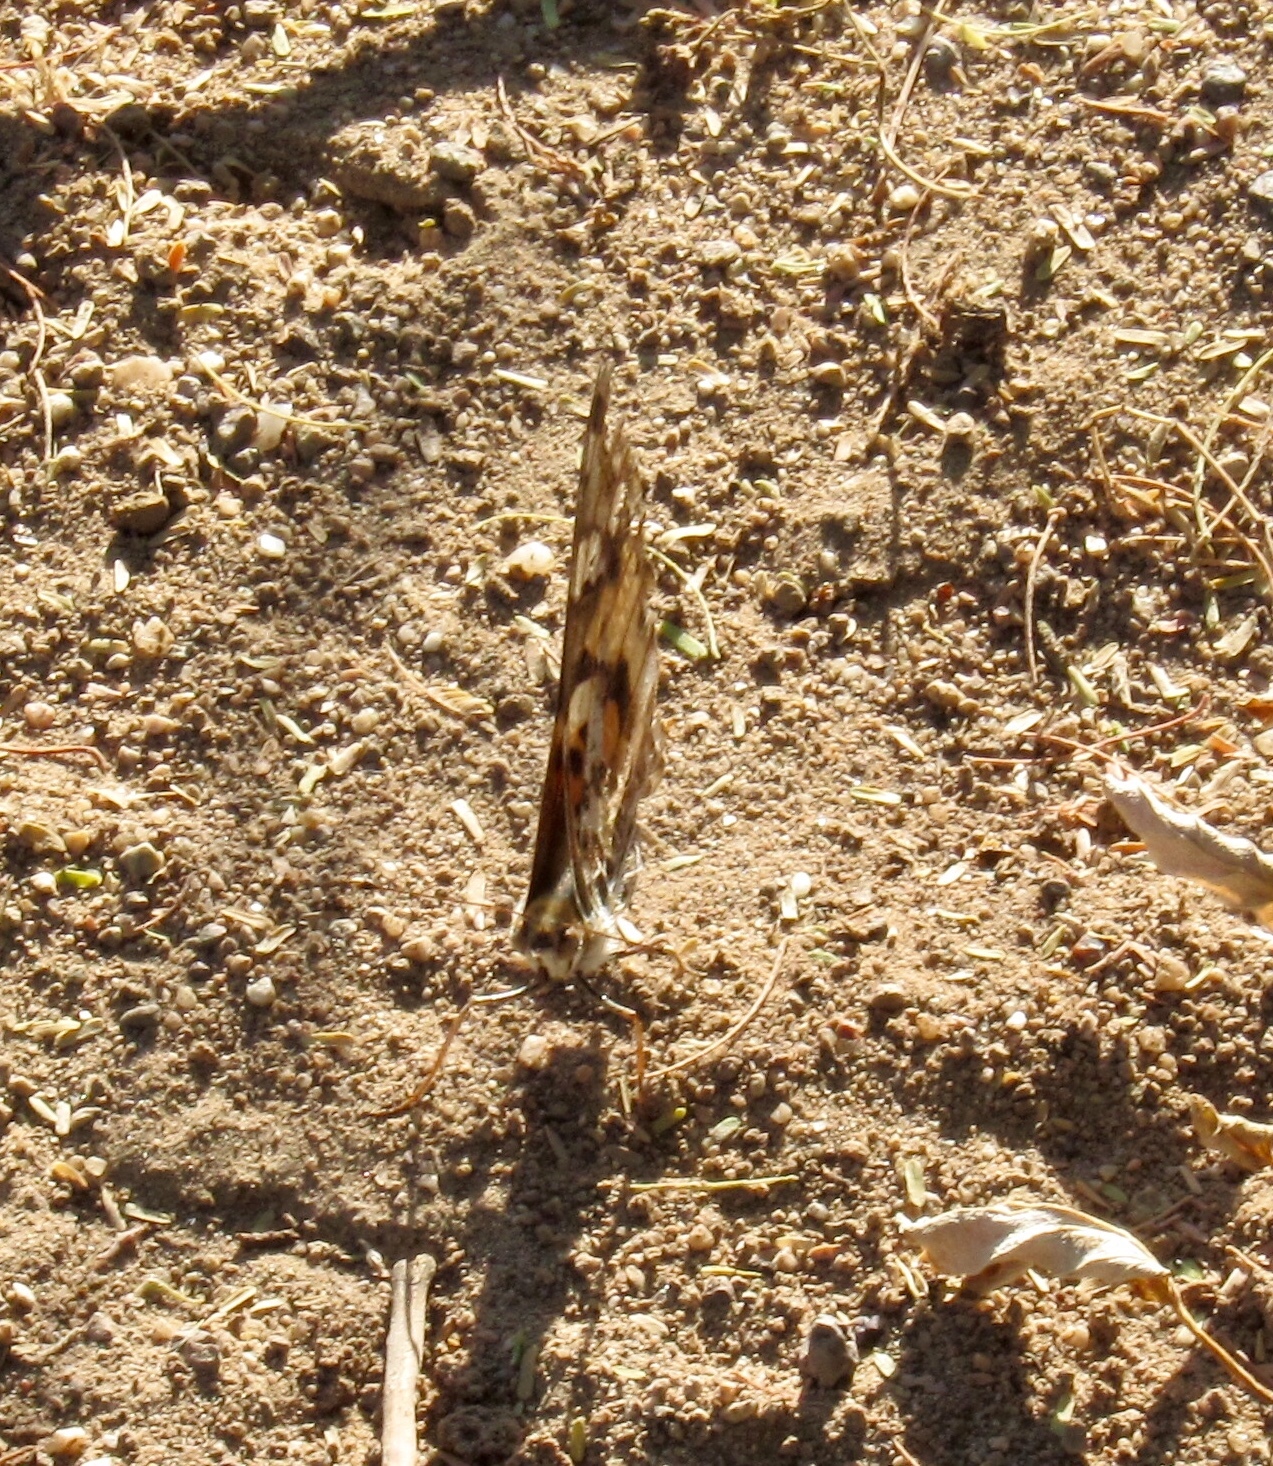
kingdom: Animalia
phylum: Arthropoda
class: Insecta
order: Lepidoptera
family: Nymphalidae
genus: Vanessa
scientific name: Vanessa cardui
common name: Painted lady
